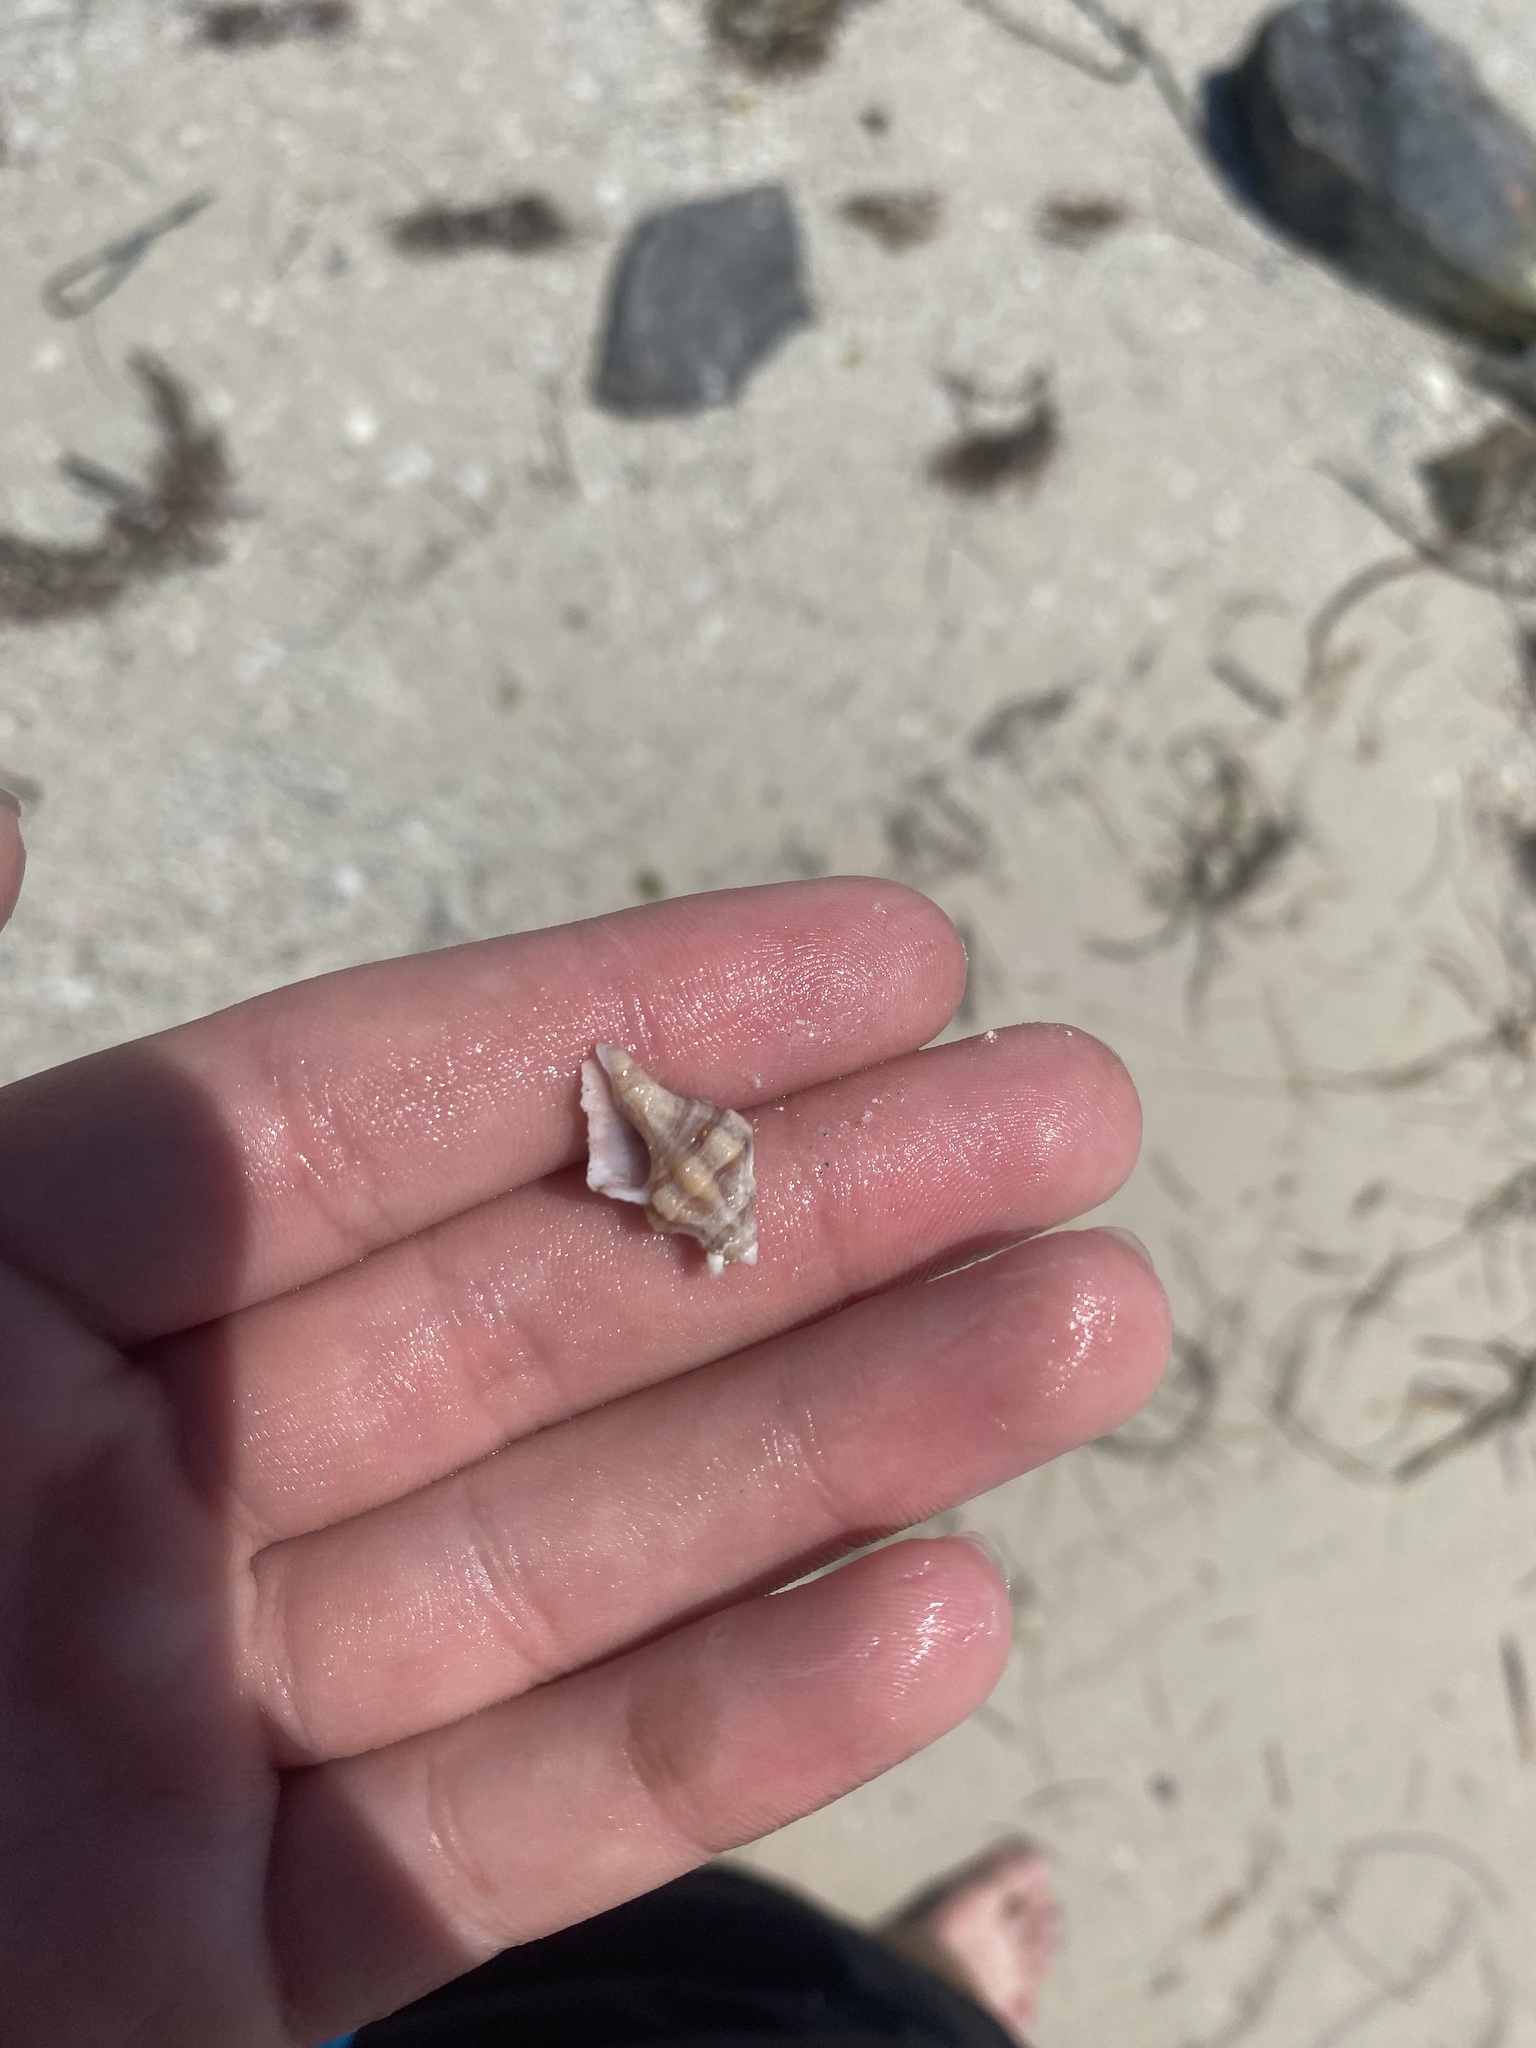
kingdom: Animalia
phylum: Mollusca
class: Gastropoda
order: Neogastropoda
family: Pisaniidae
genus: Hesperisternia
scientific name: Hesperisternia multangulus
